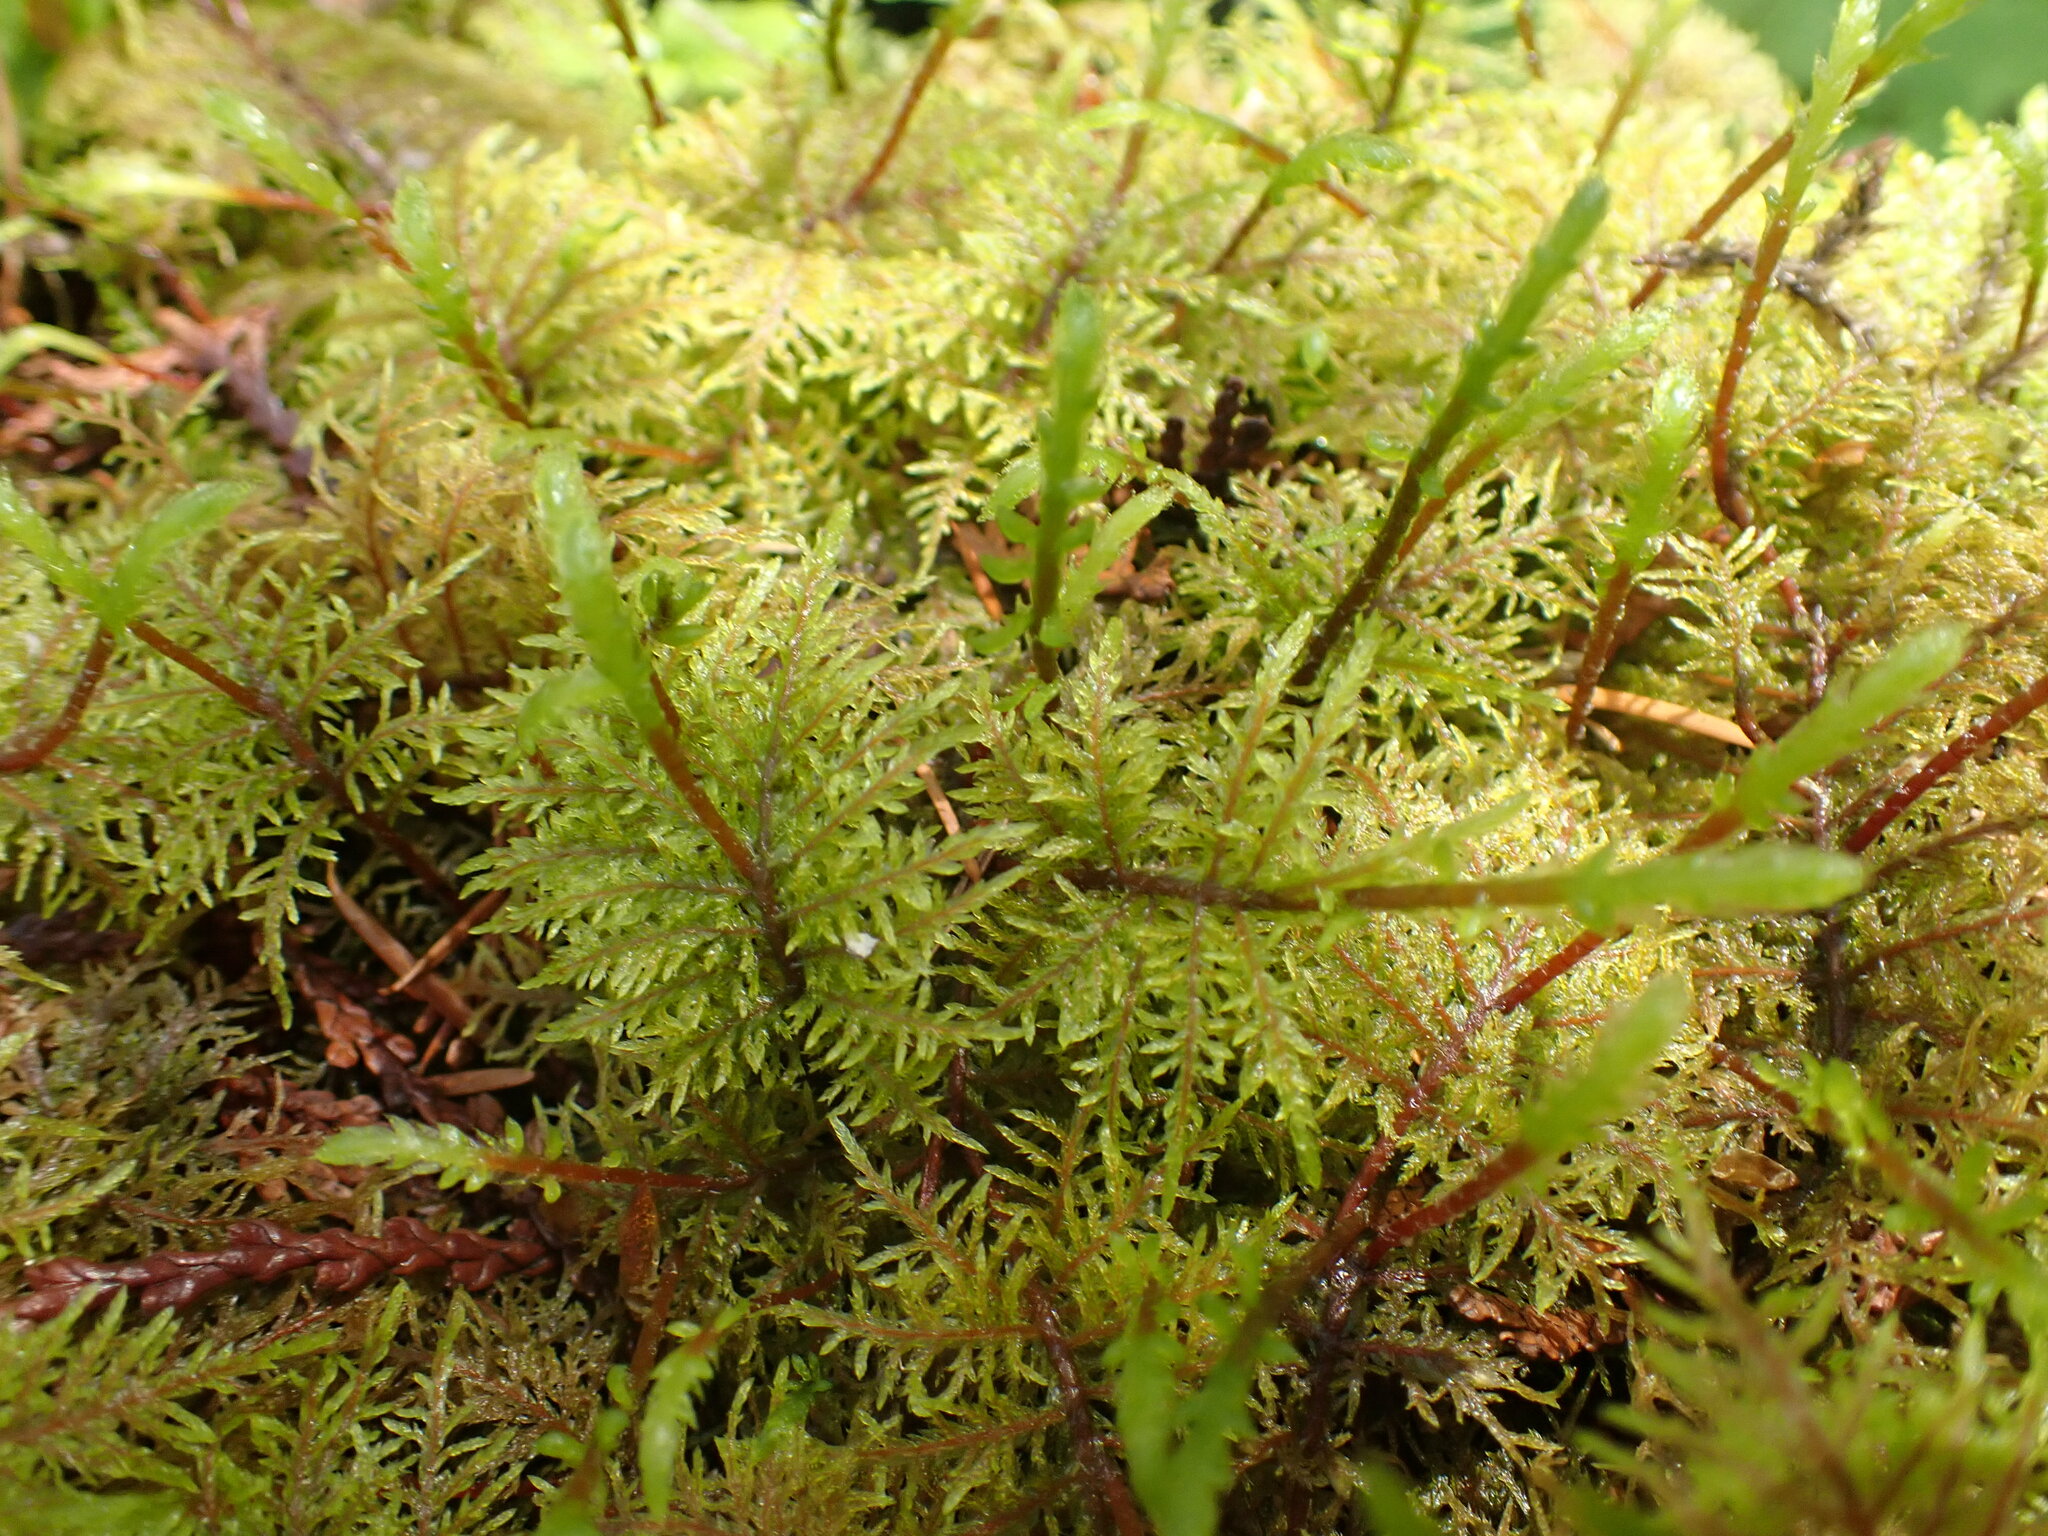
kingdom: Plantae
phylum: Bryophyta
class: Bryopsida
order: Hypnales
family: Hylocomiaceae
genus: Hylocomium
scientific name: Hylocomium splendens
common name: Stairstep moss
